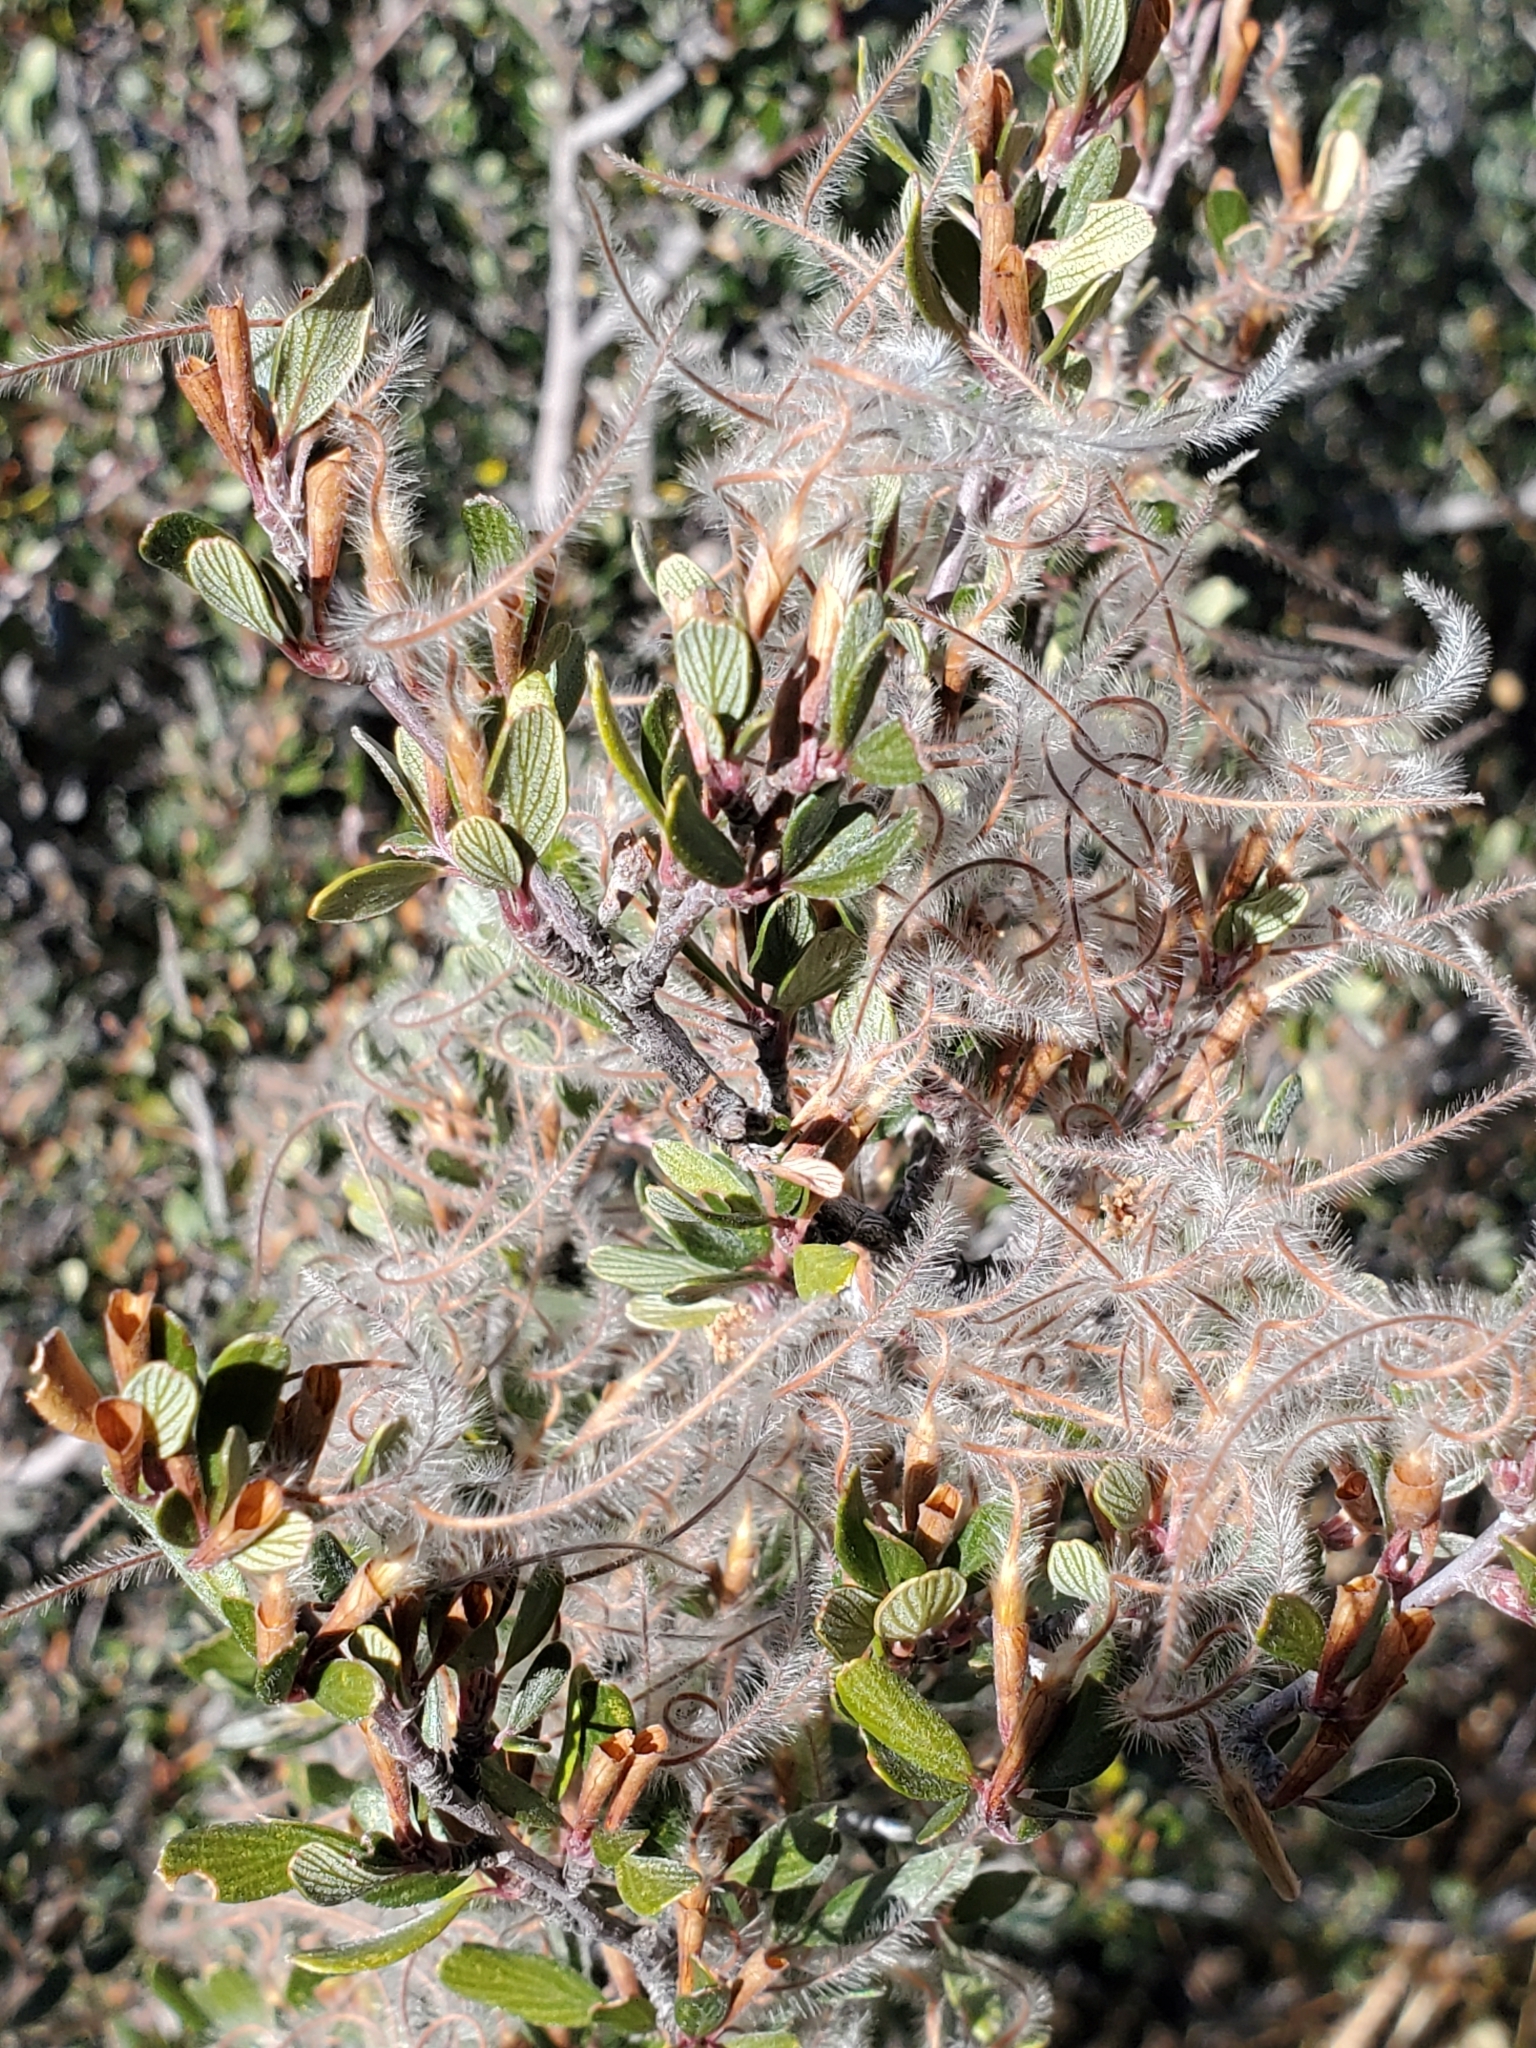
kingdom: Plantae
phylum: Tracheophyta
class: Magnoliopsida
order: Rosales
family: Rosaceae
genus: Cercocarpus
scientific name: Cercocarpus breviflorus
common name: Wright's mountain-mahogany
